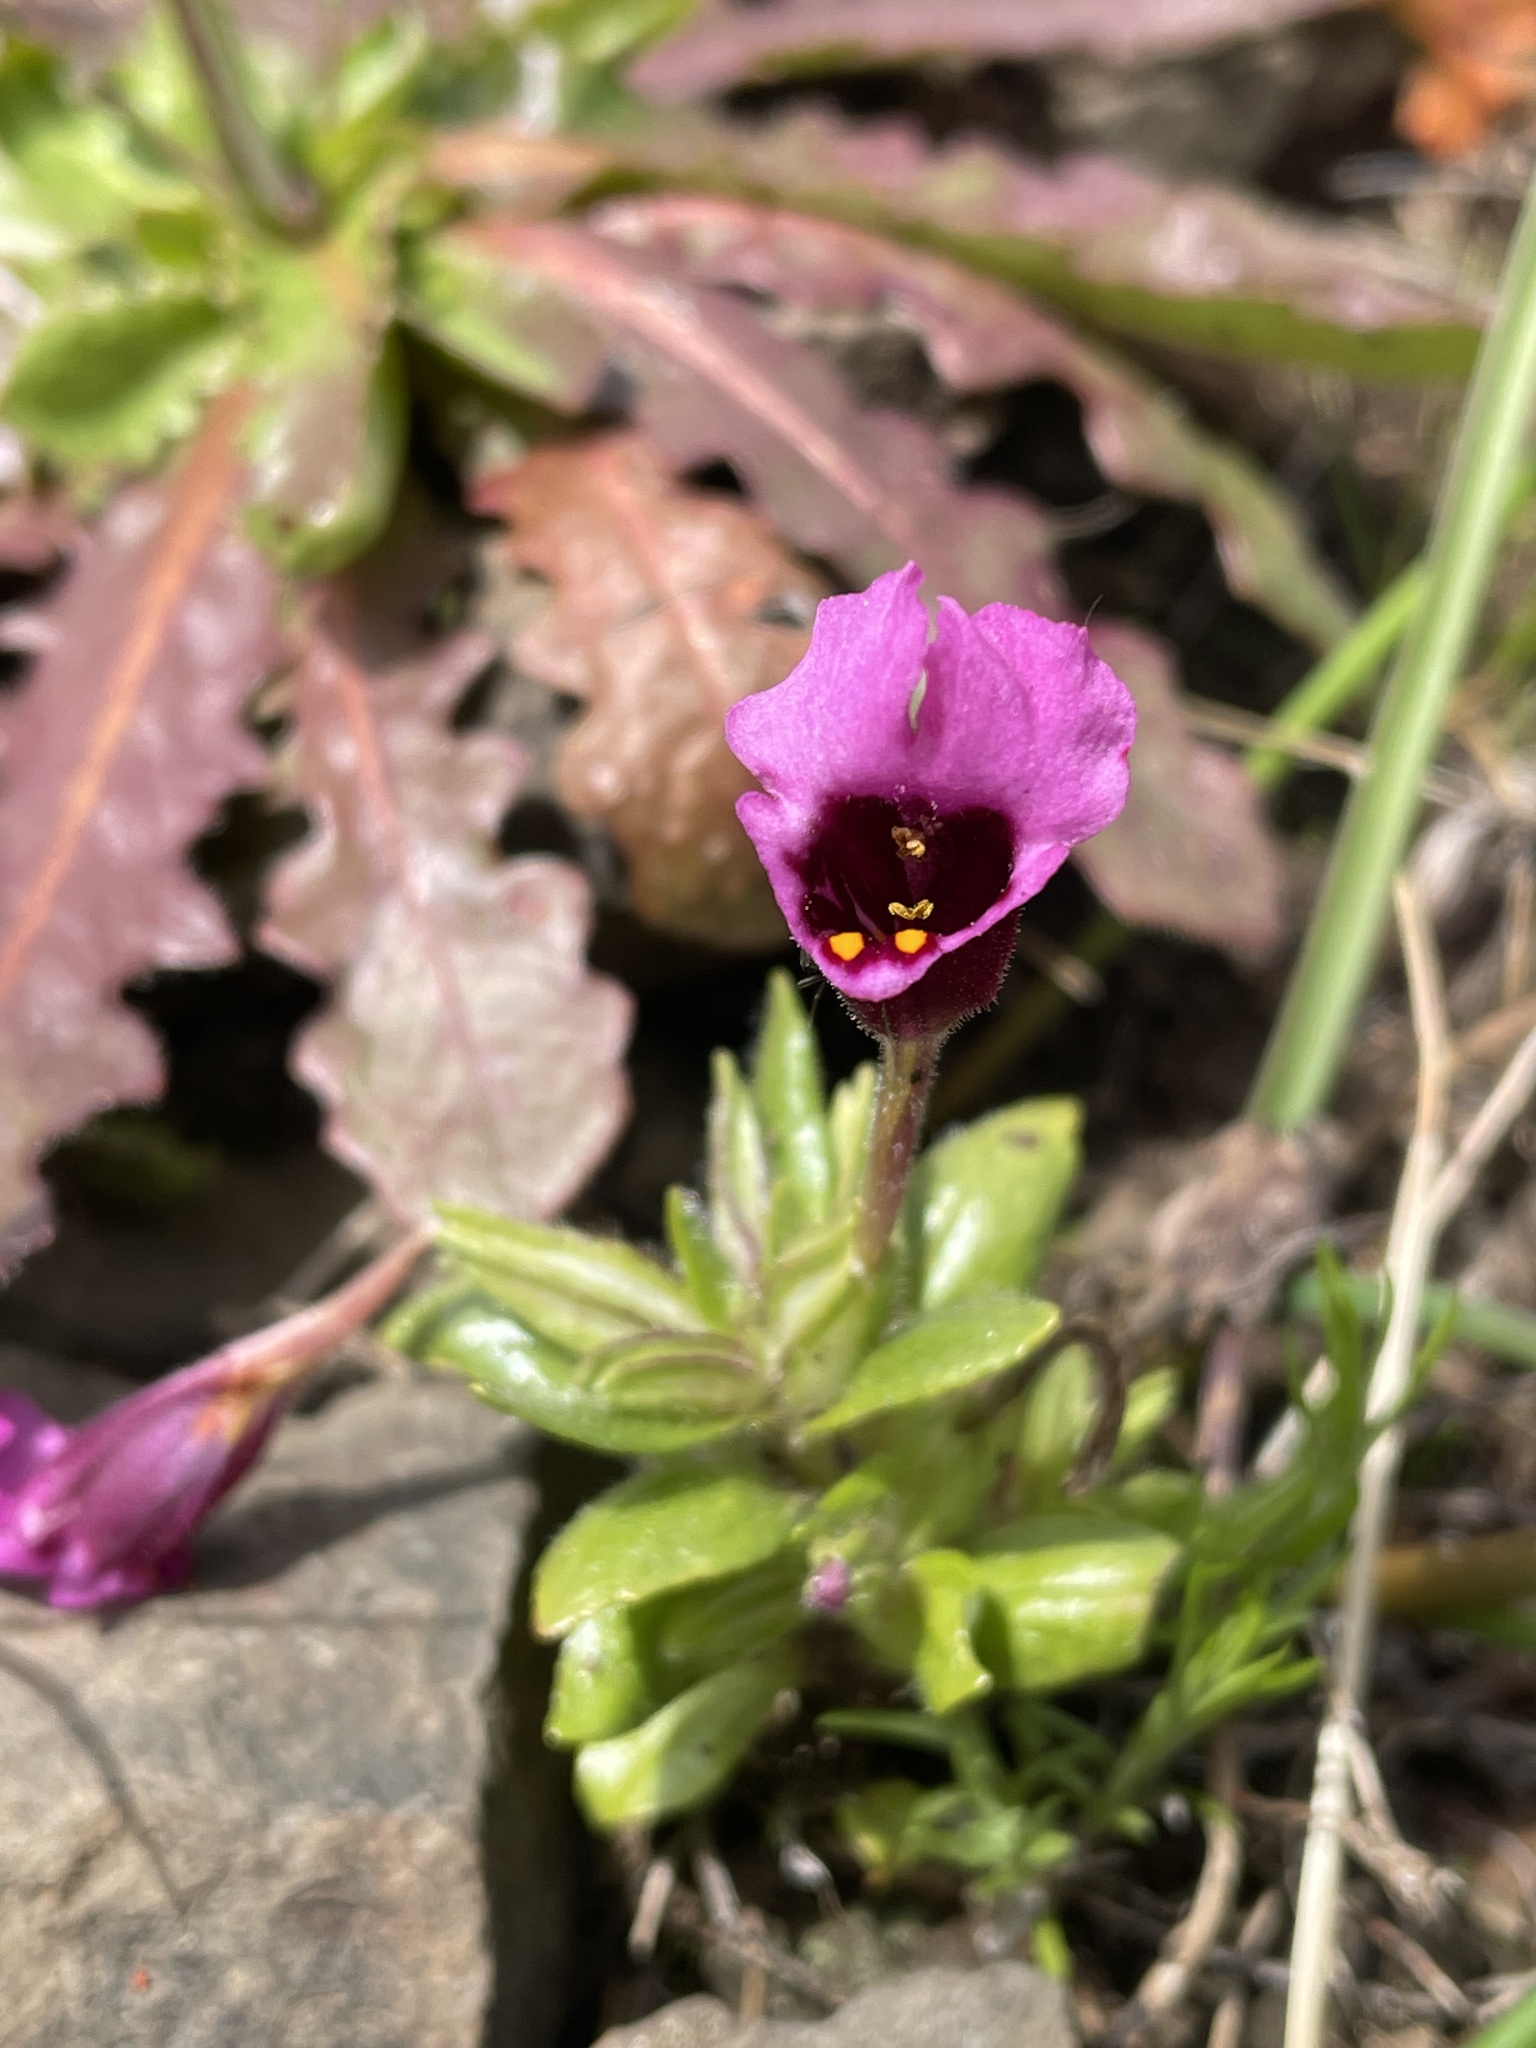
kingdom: Plantae
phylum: Tracheophyta
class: Magnoliopsida
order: Lamiales
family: Phrymaceae
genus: Diplacus
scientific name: Diplacus douglasii
